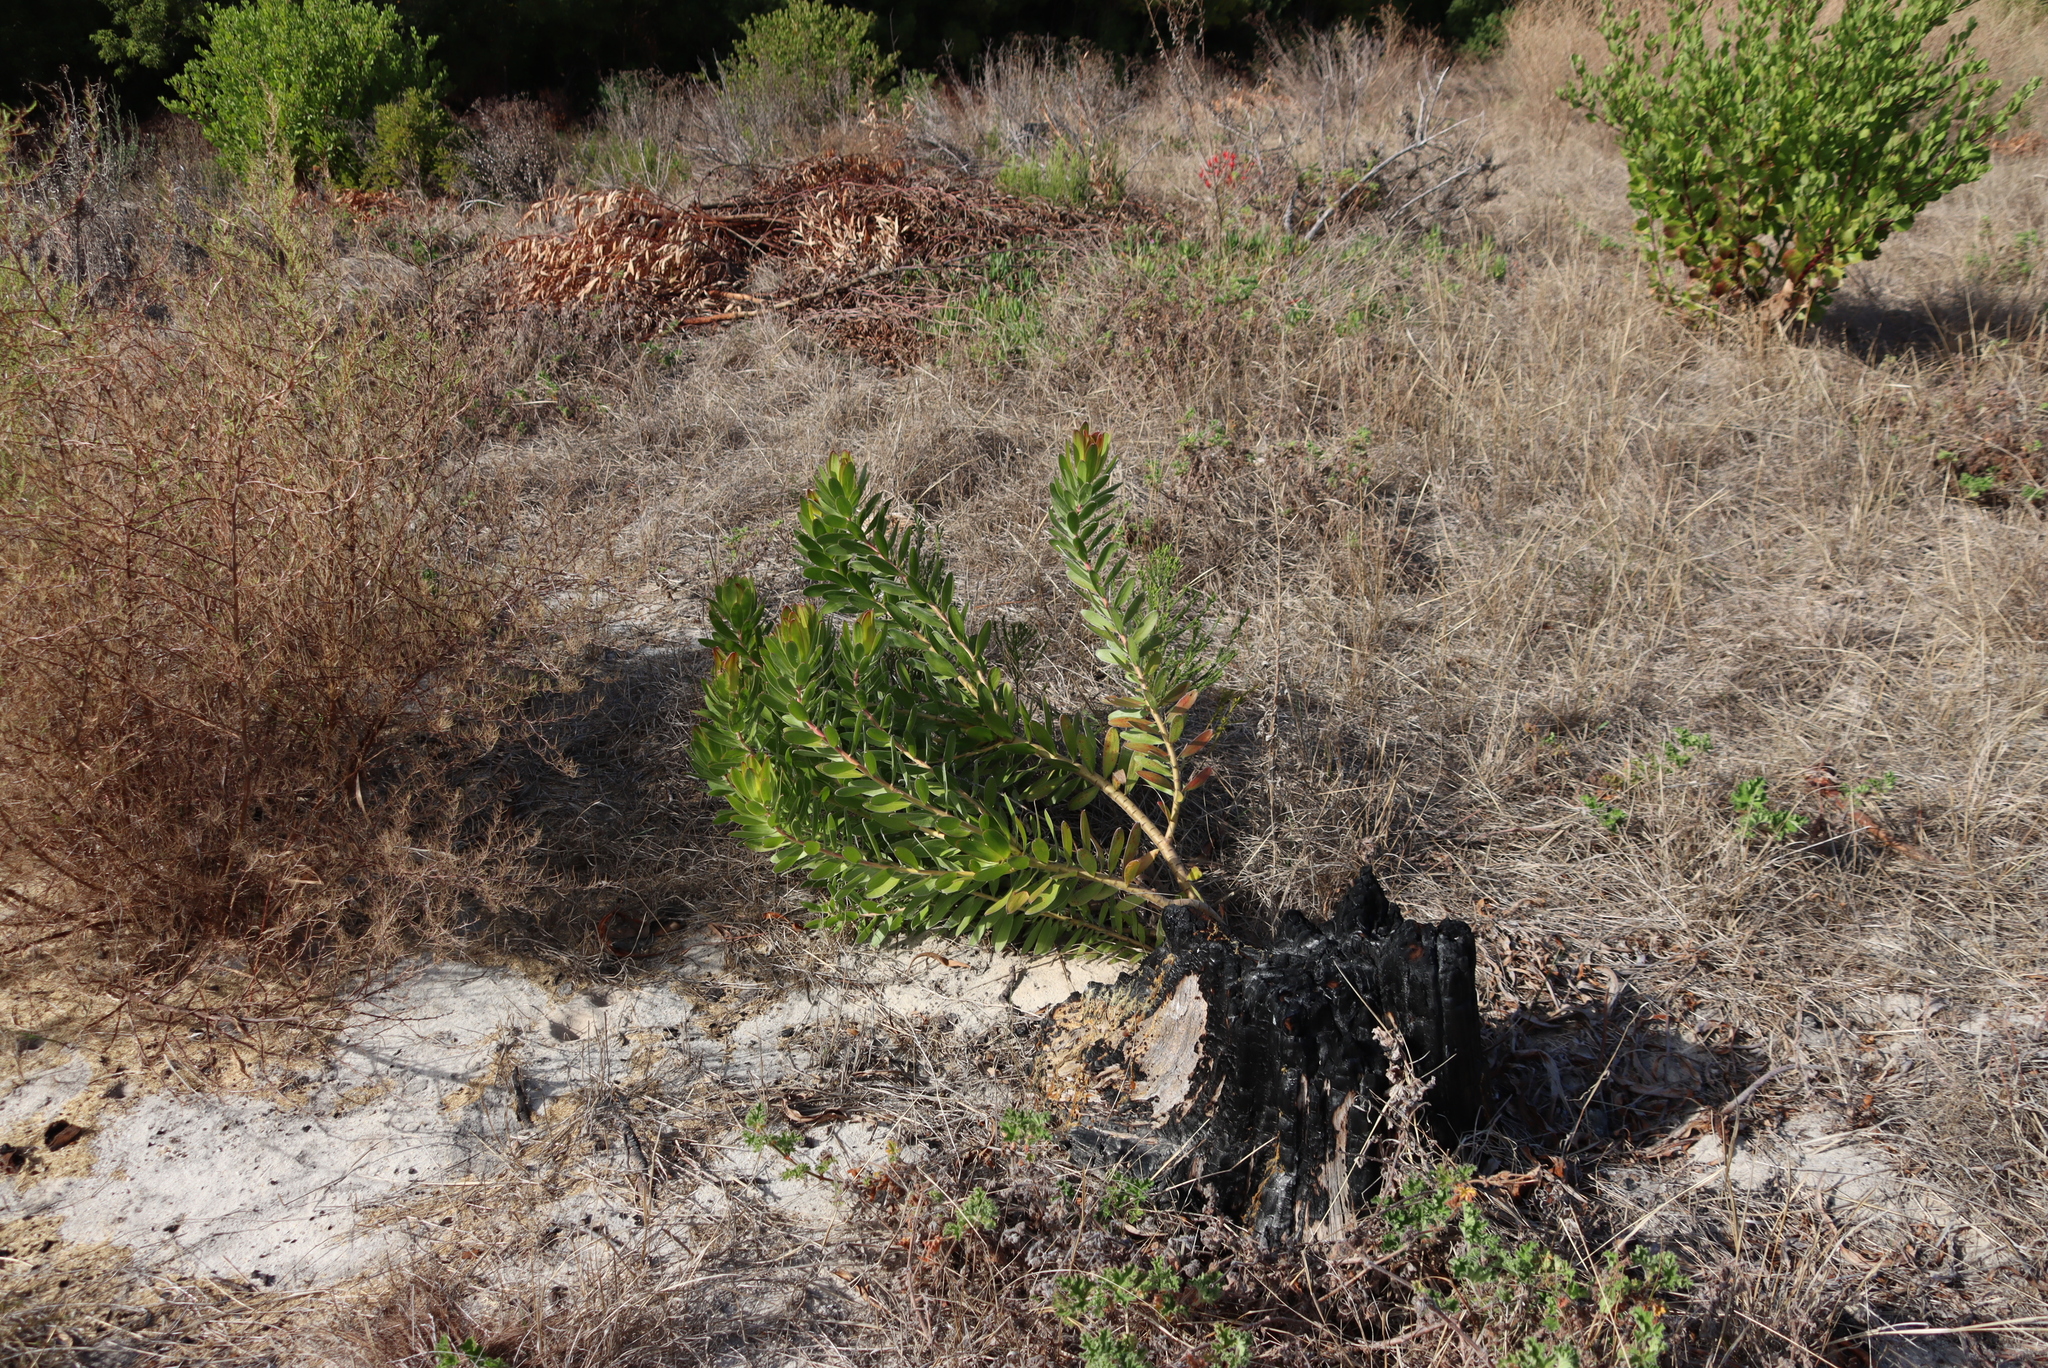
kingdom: Plantae
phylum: Tracheophyta
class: Magnoliopsida
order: Proteales
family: Proteaceae
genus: Leucadendron
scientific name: Leucadendron laureolum
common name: Golden sunshinebush
